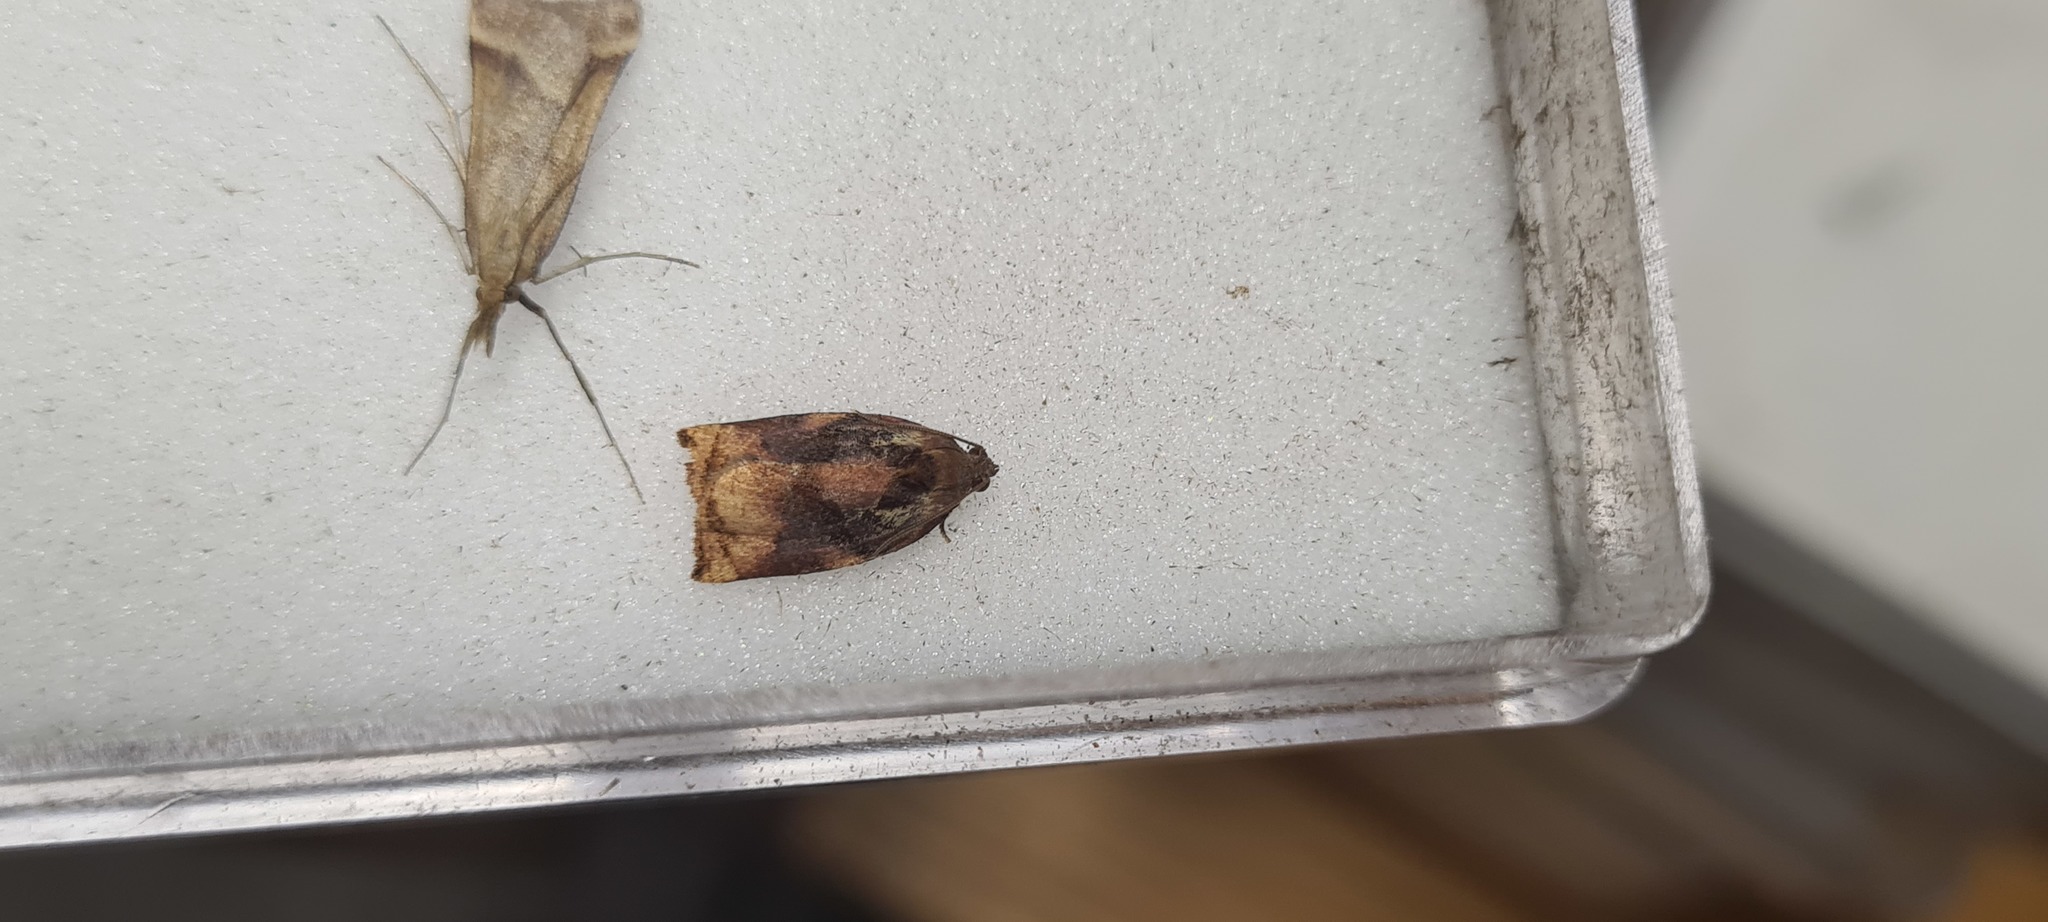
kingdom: Animalia
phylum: Arthropoda
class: Insecta
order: Lepidoptera
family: Tortricidae
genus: Archips
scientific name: Archips podana
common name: Large fruit-tree tortrix
